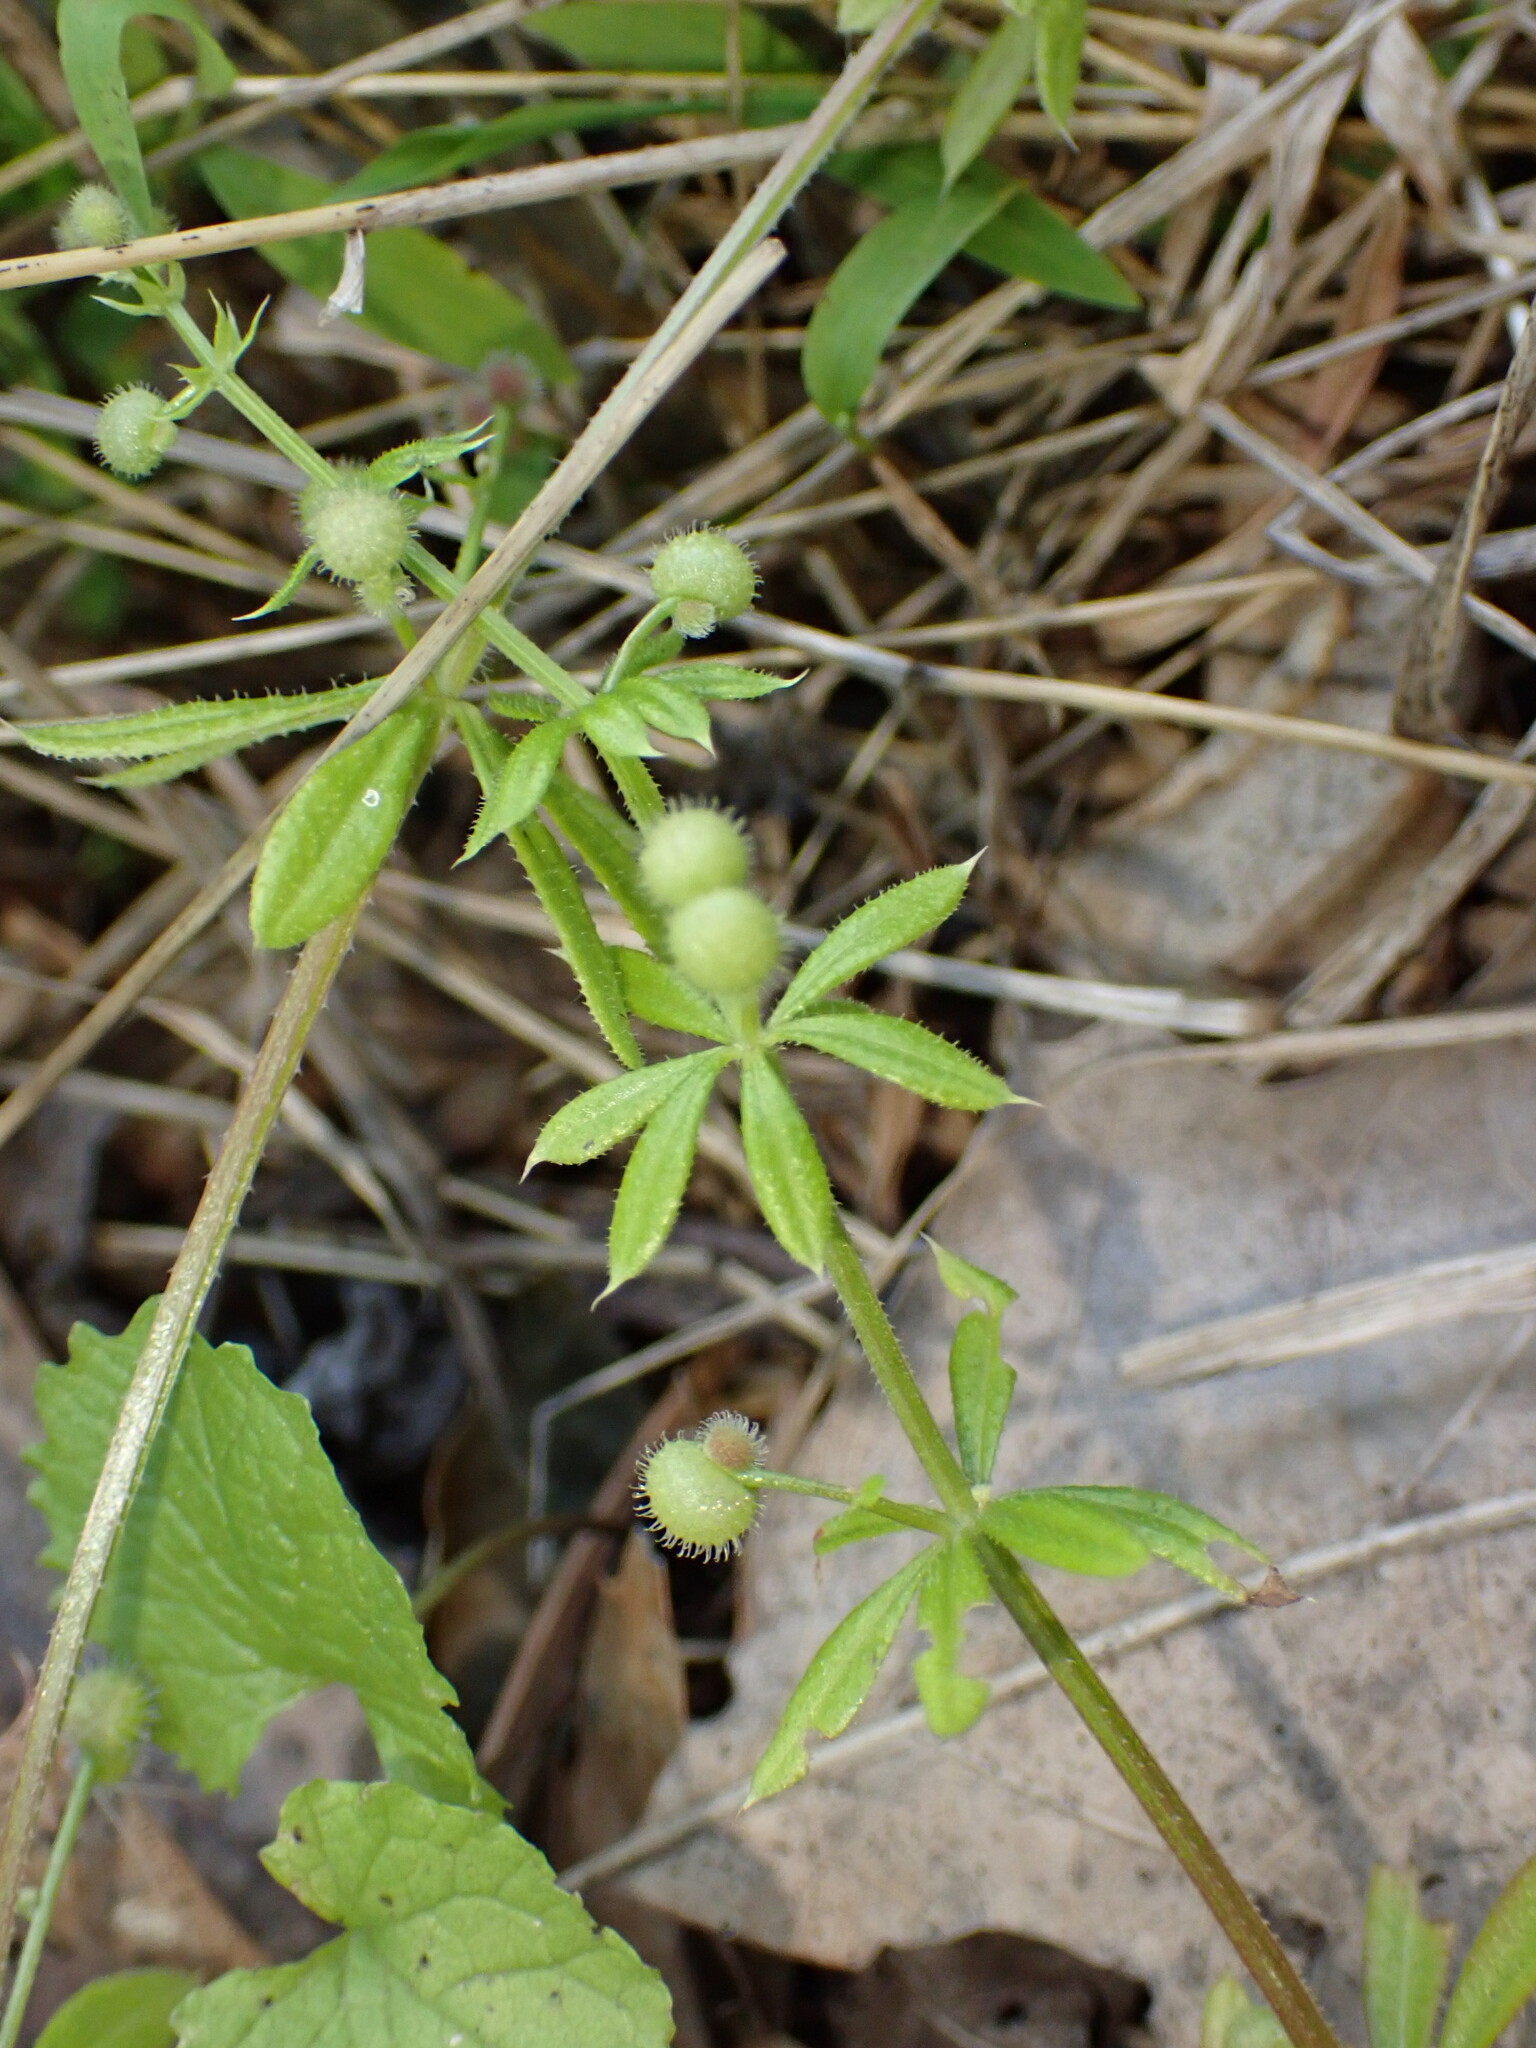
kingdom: Plantae
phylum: Tracheophyta
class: Magnoliopsida
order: Gentianales
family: Rubiaceae
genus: Galium
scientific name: Galium aparine
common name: Cleavers
